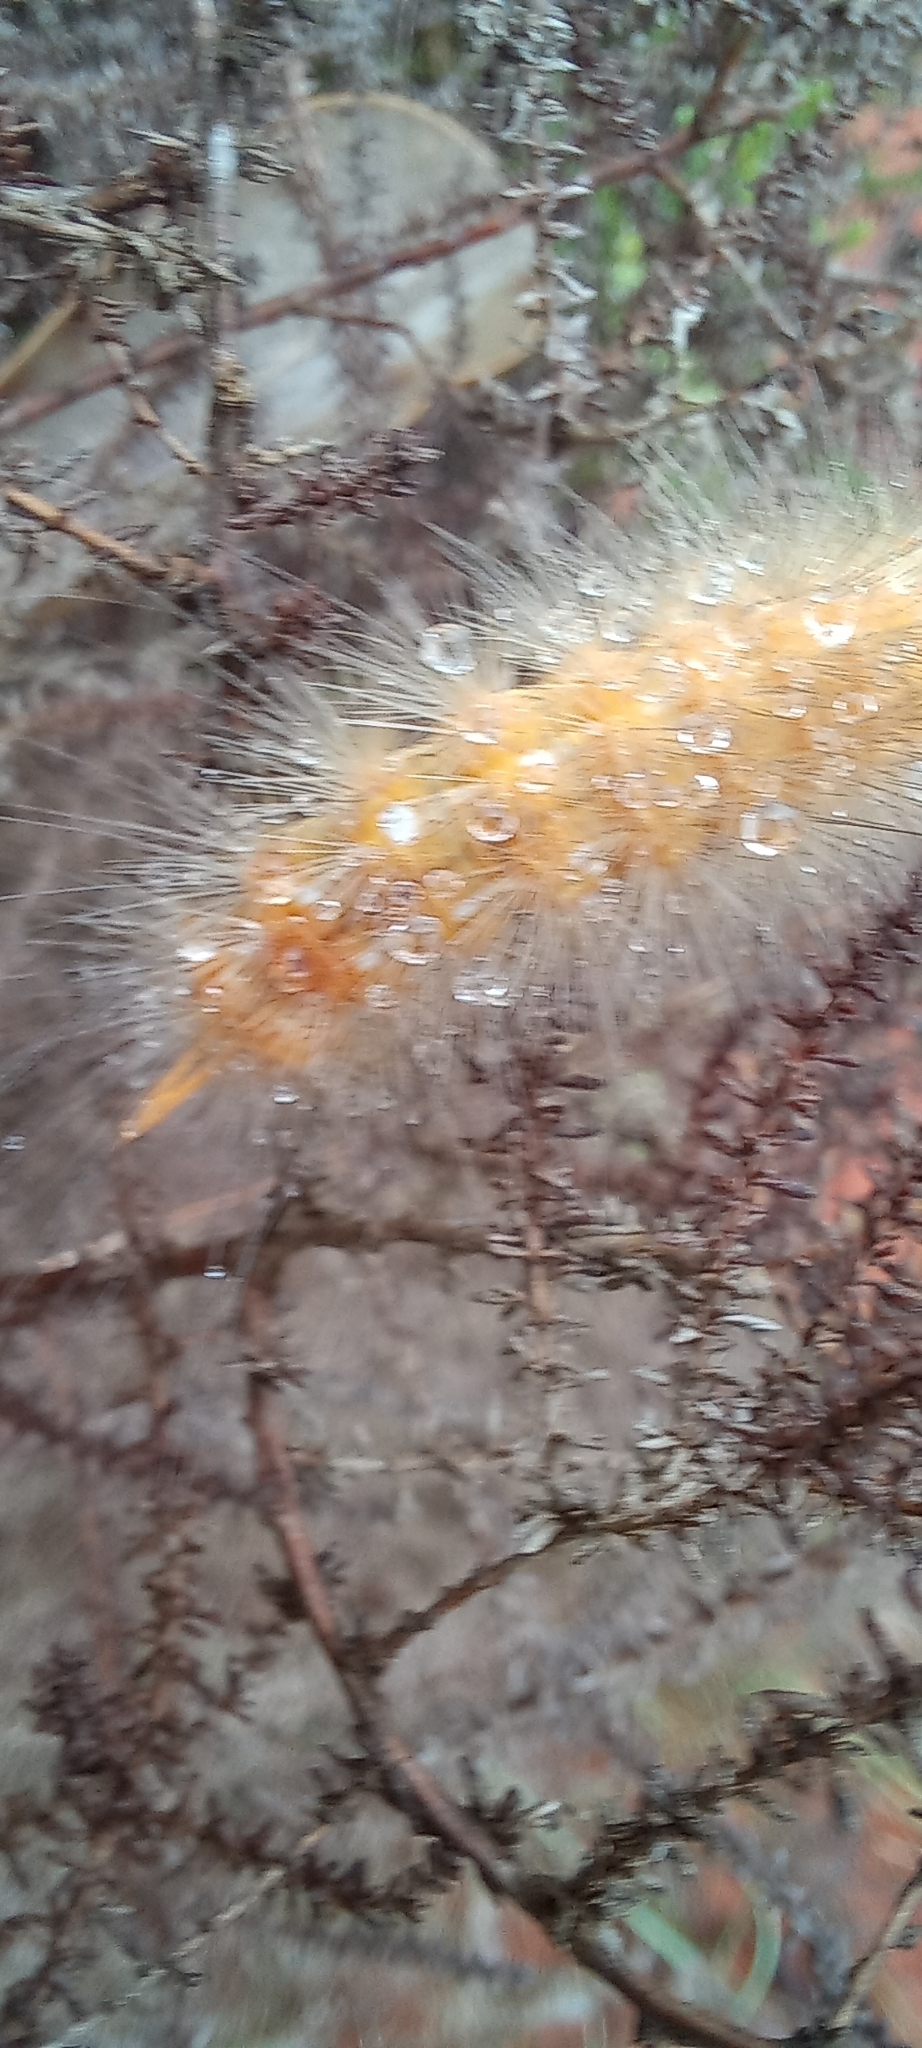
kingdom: Animalia
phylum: Arthropoda
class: Insecta
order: Lepidoptera
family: Erebidae
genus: Lymantria
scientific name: Lymantria Morasa modesta
